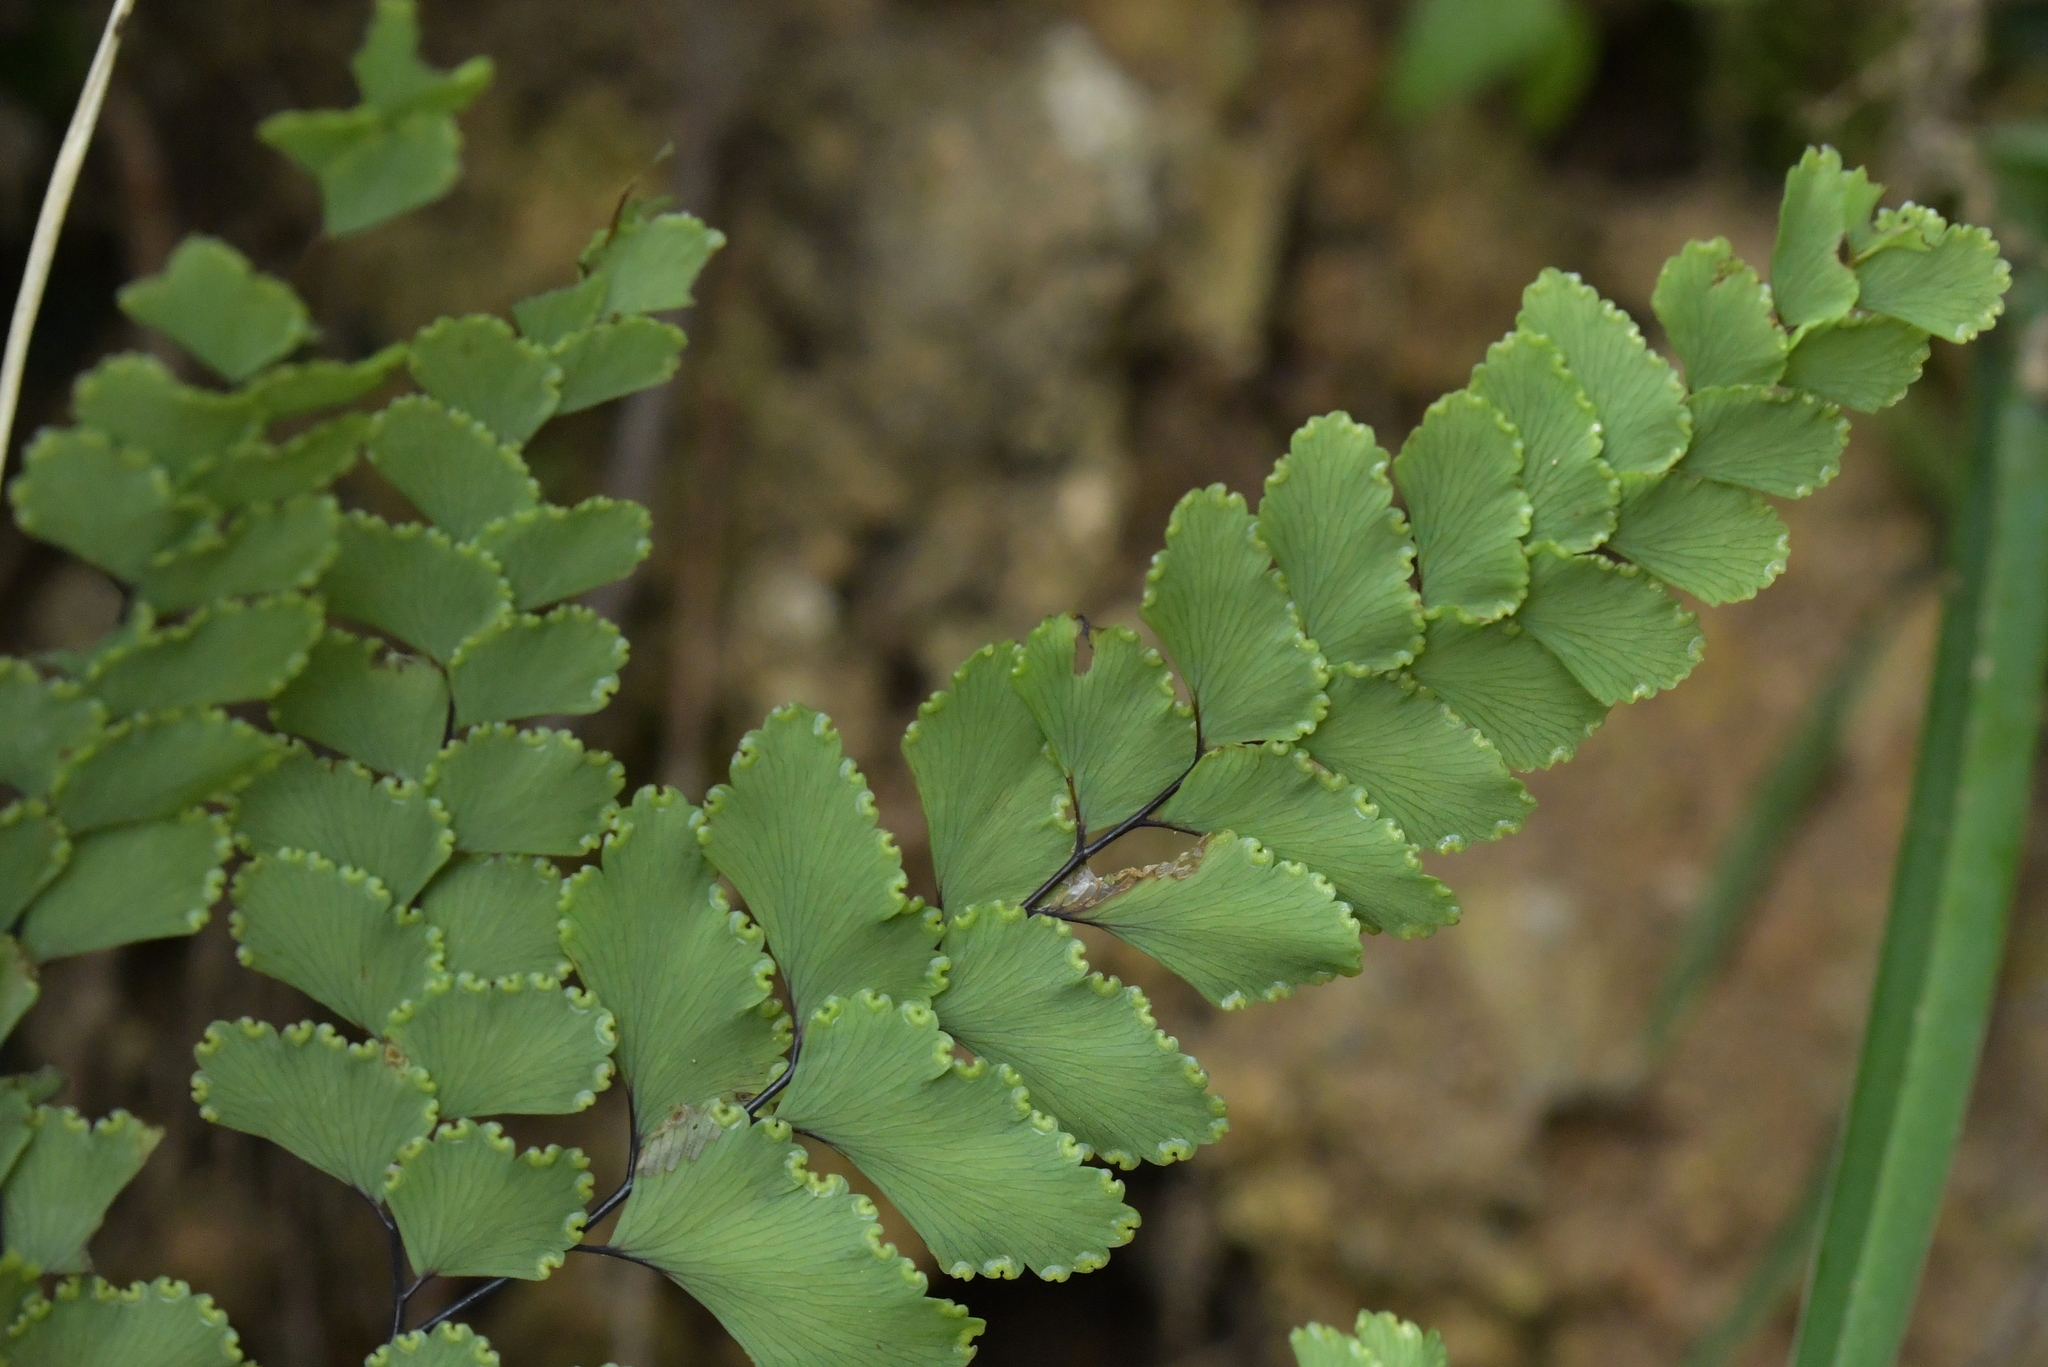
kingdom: Plantae
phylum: Tracheophyta
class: Polypodiopsida
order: Polypodiales
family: Pteridaceae
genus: Adiantum
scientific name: Adiantum cunninghamii
